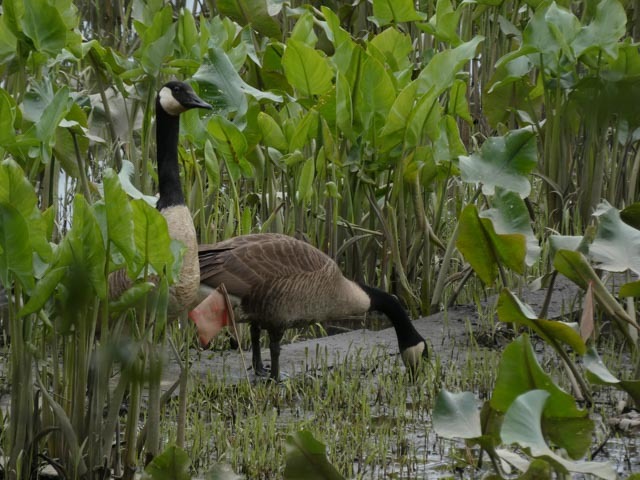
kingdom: Animalia
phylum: Chordata
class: Aves
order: Anseriformes
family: Anatidae
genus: Branta
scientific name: Branta canadensis
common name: Canada goose
